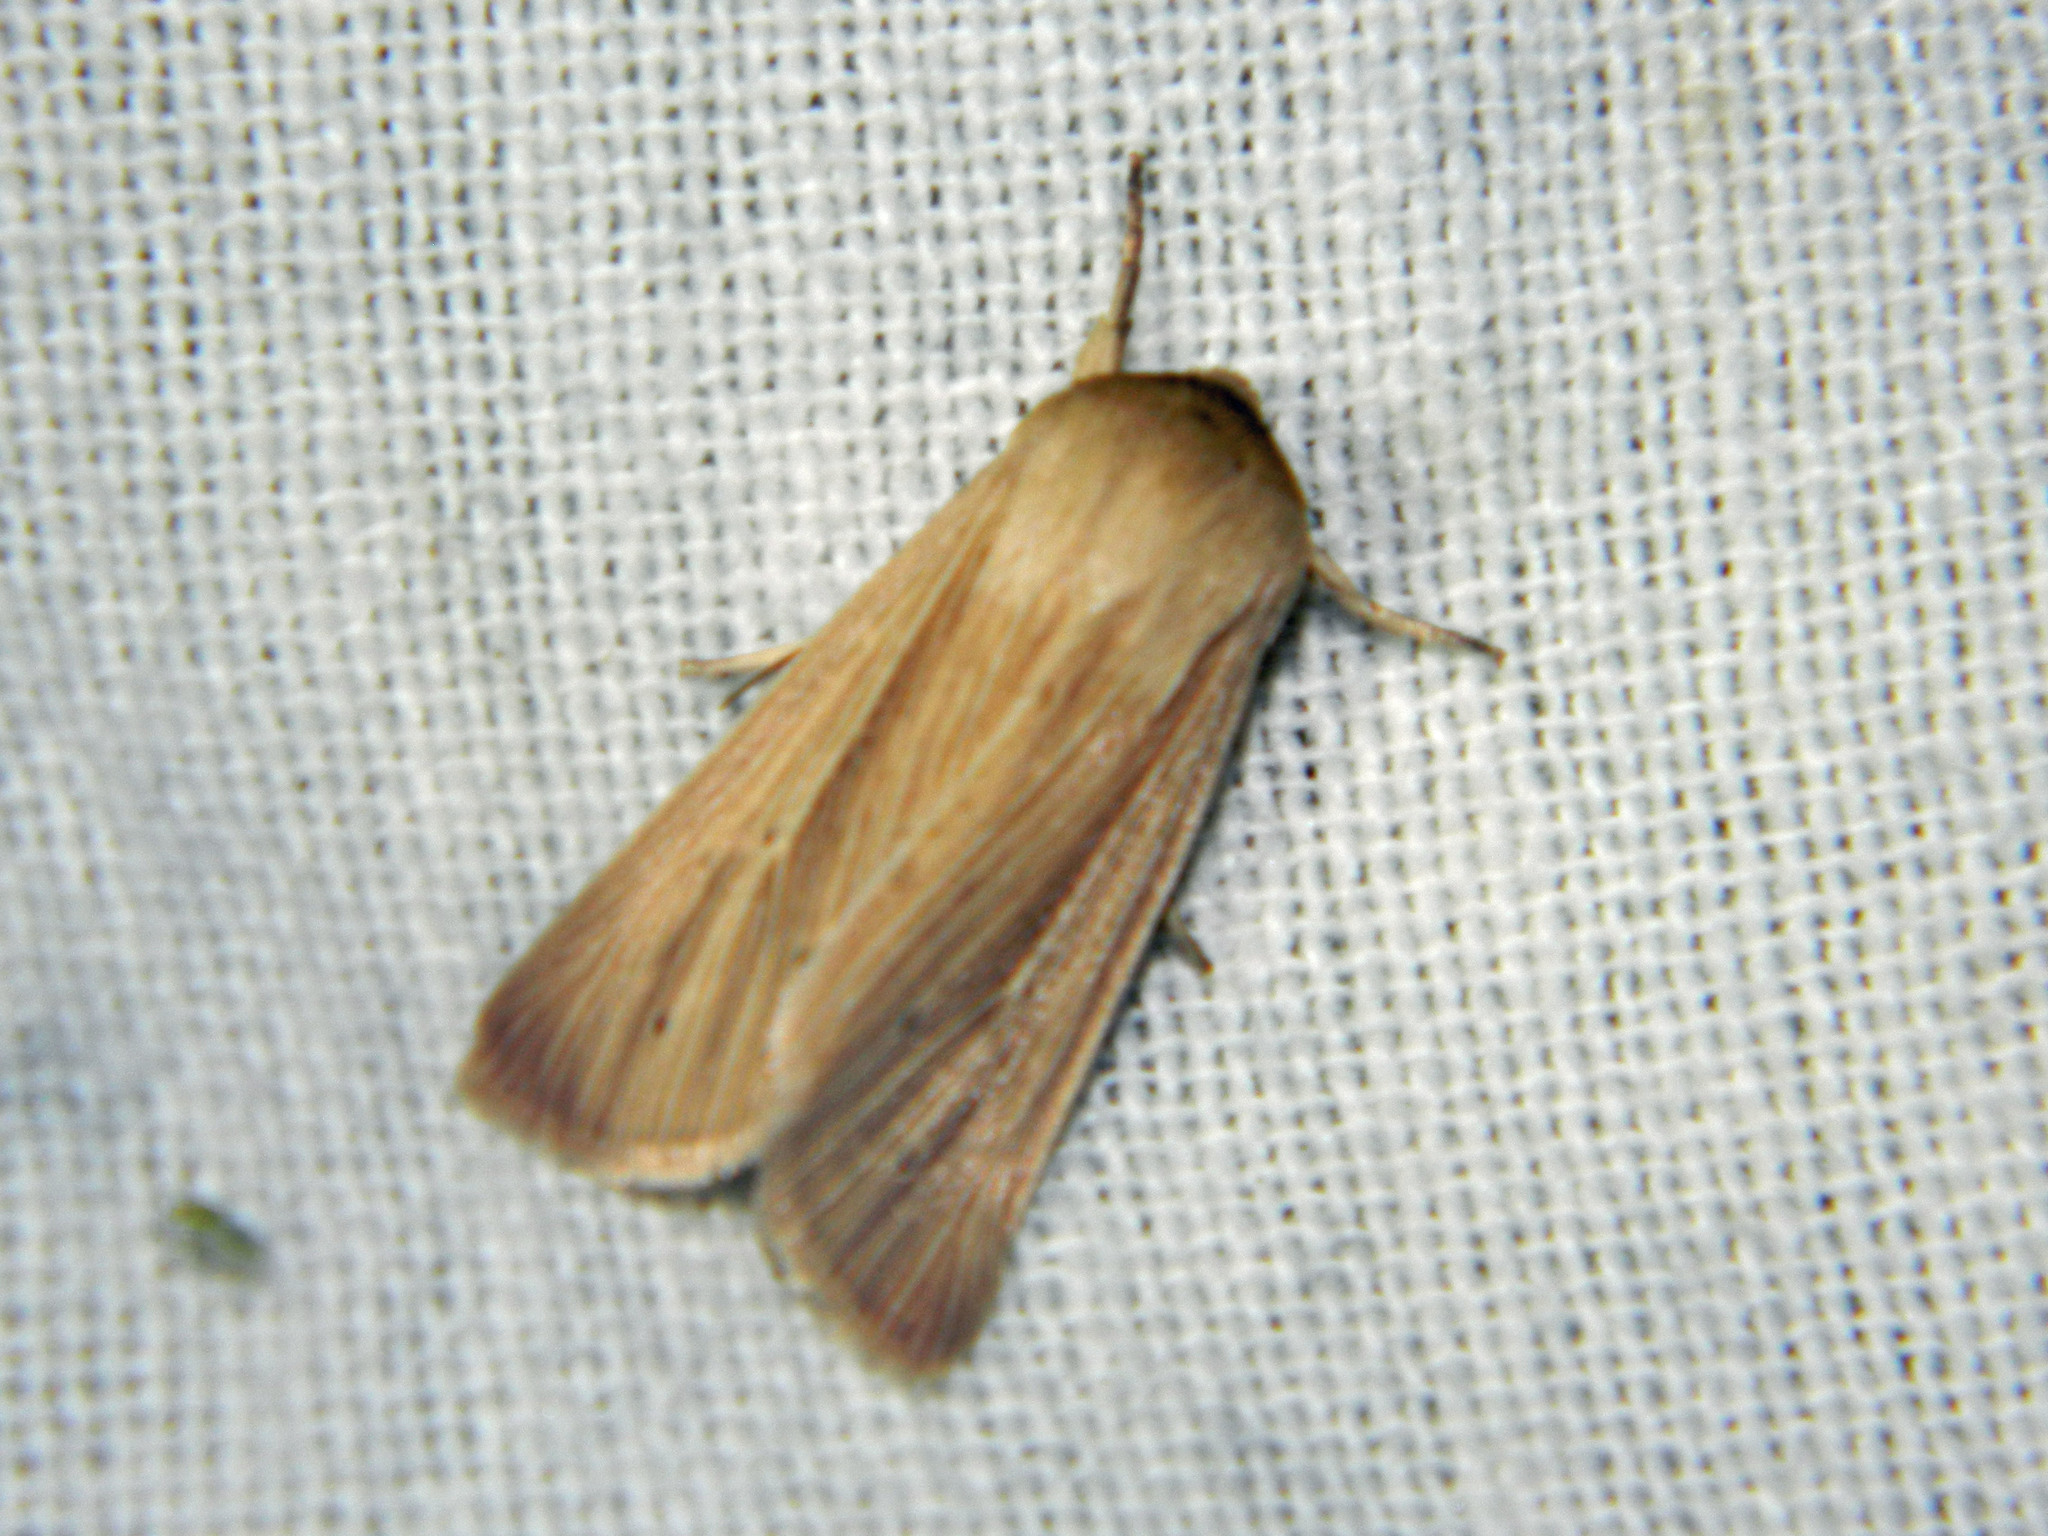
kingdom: Animalia
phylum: Arthropoda
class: Insecta
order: Lepidoptera
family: Noctuidae
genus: Mythimna
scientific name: Mythimna oxygala
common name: Lesser wainscot
